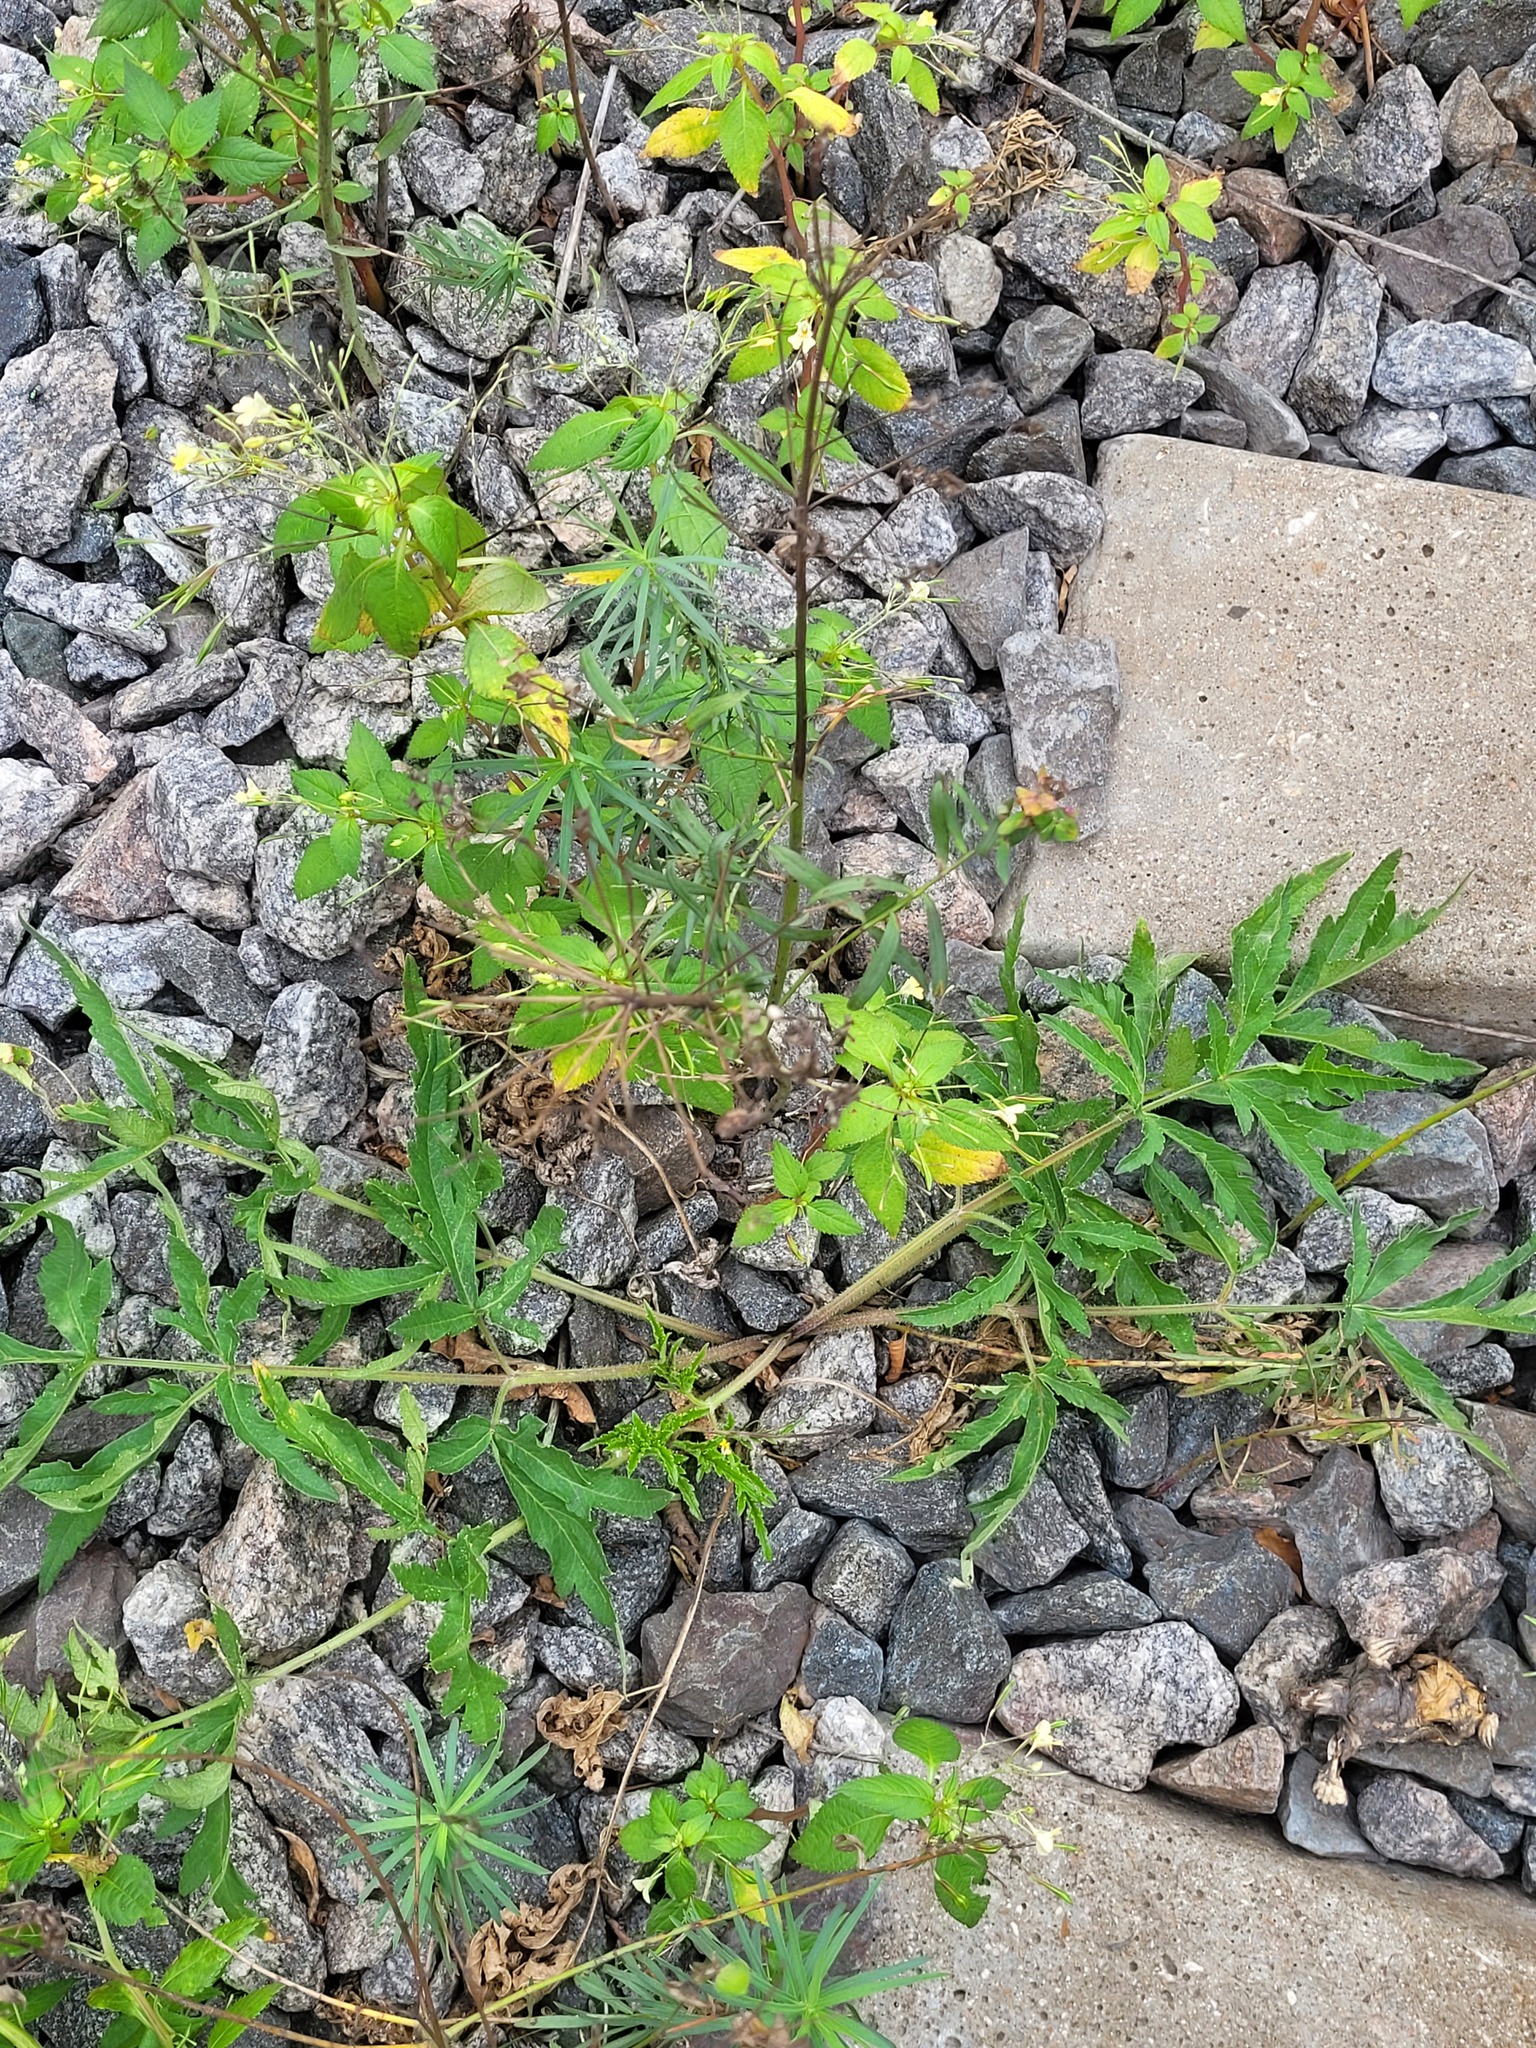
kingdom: Plantae
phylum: Tracheophyta
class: Magnoliopsida
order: Ericales
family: Balsaminaceae
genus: Impatiens
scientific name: Impatiens parviflora
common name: Small balsam
